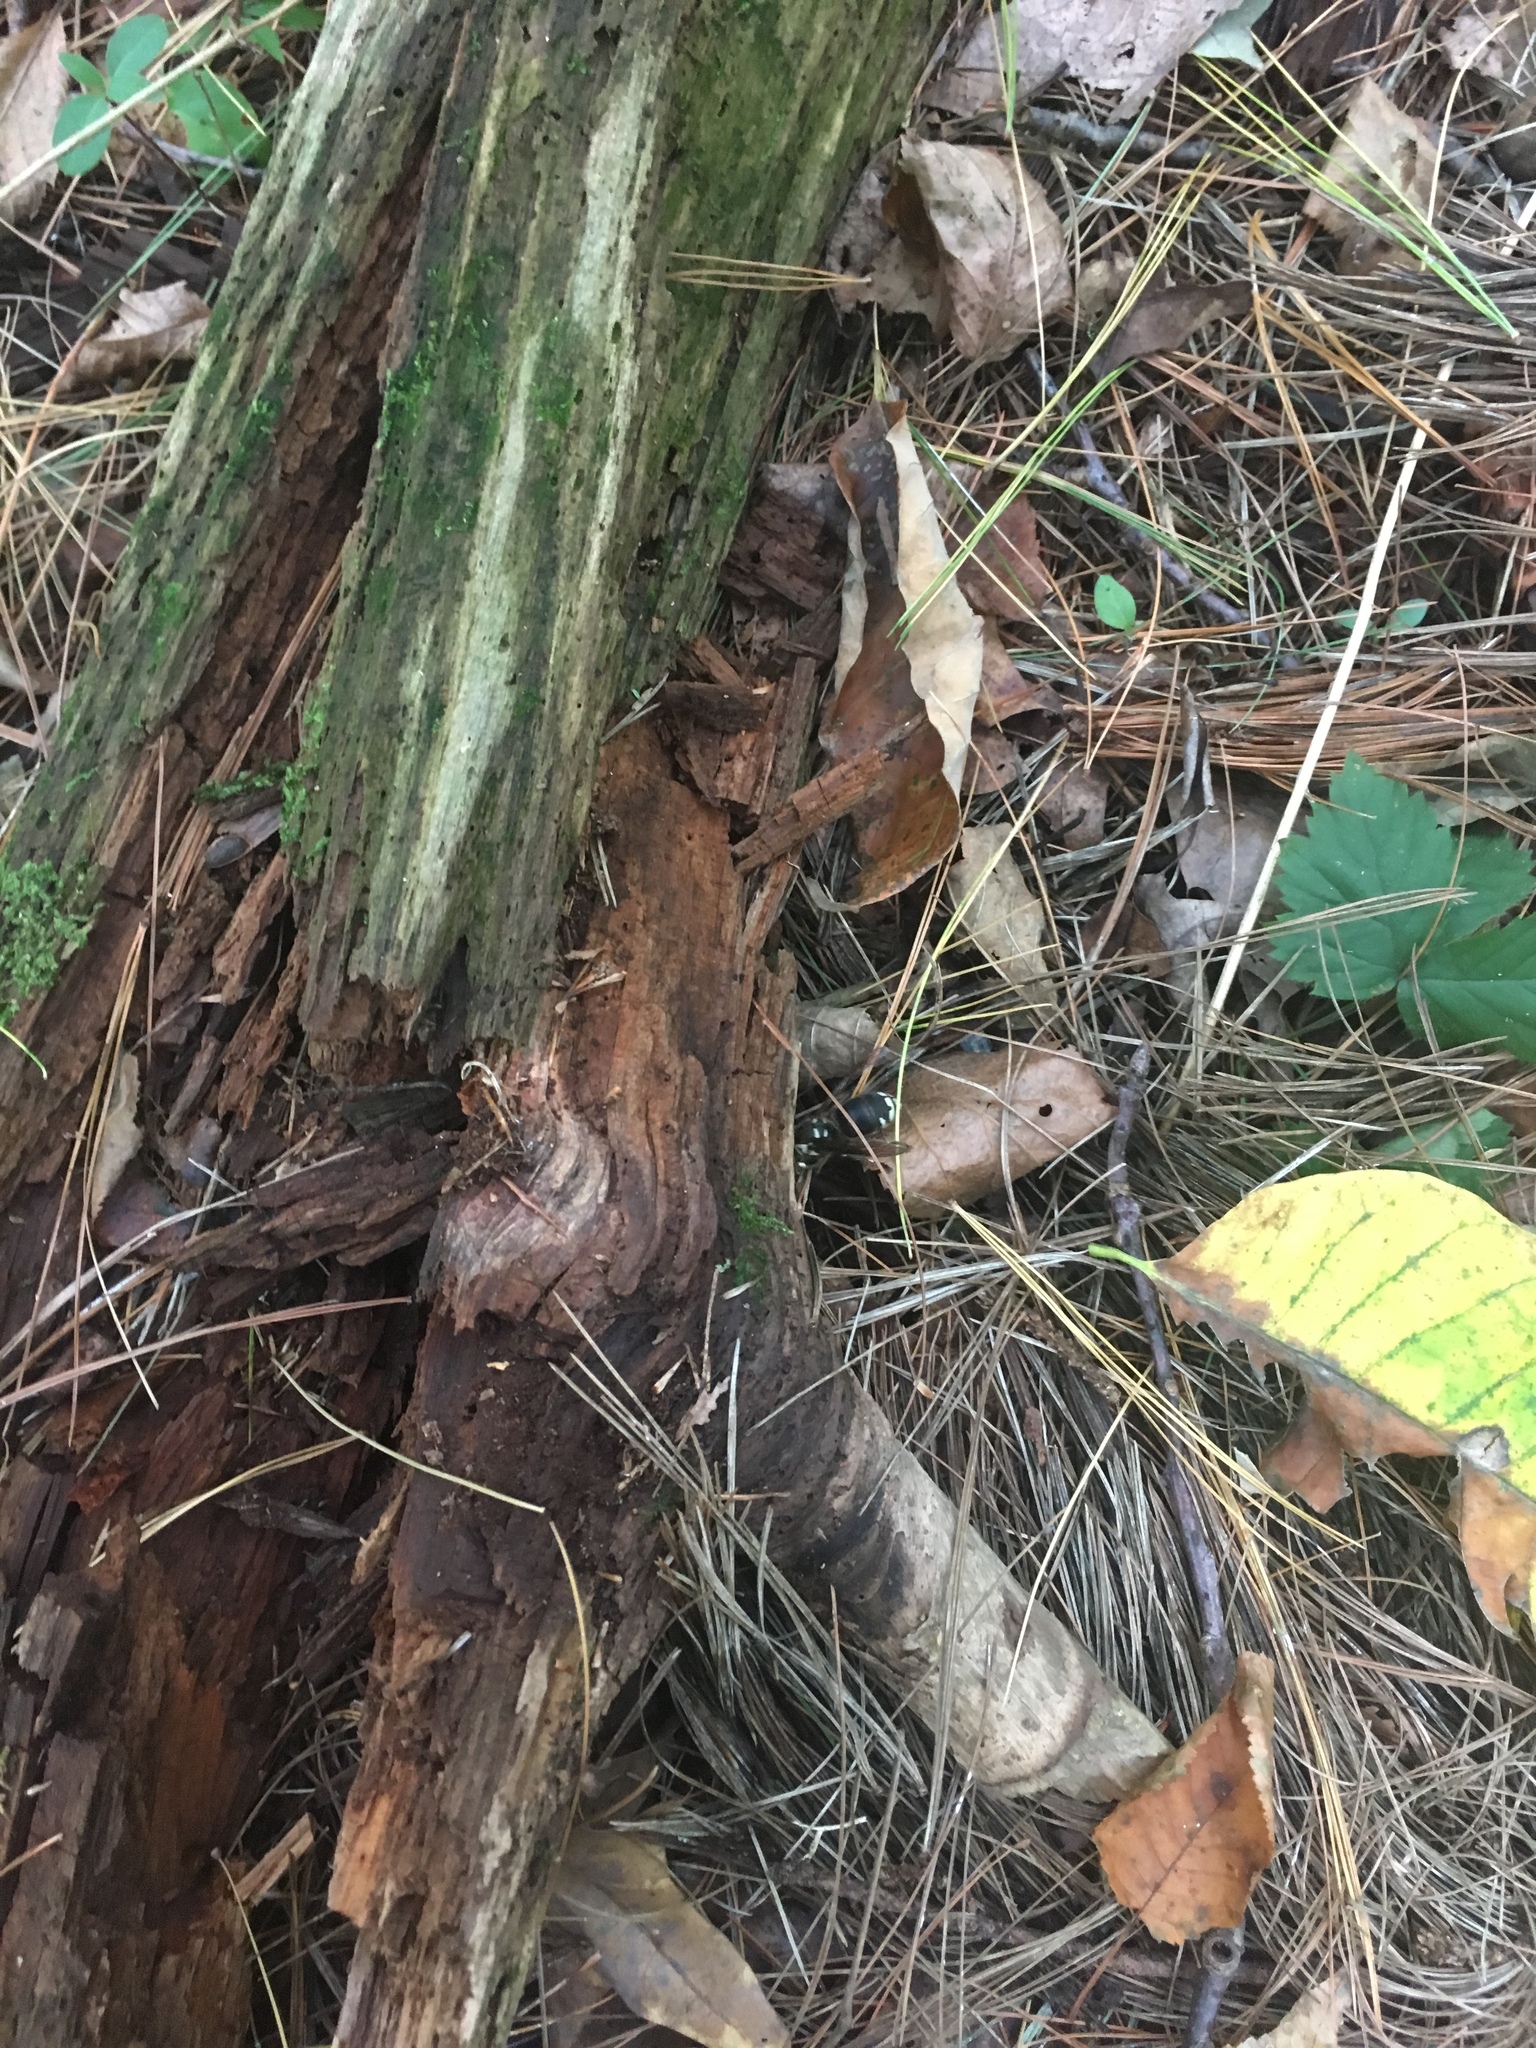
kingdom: Animalia
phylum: Arthropoda
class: Insecta
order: Hymenoptera
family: Vespidae
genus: Dolichovespula
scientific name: Dolichovespula maculata
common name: Bald-faced hornet
